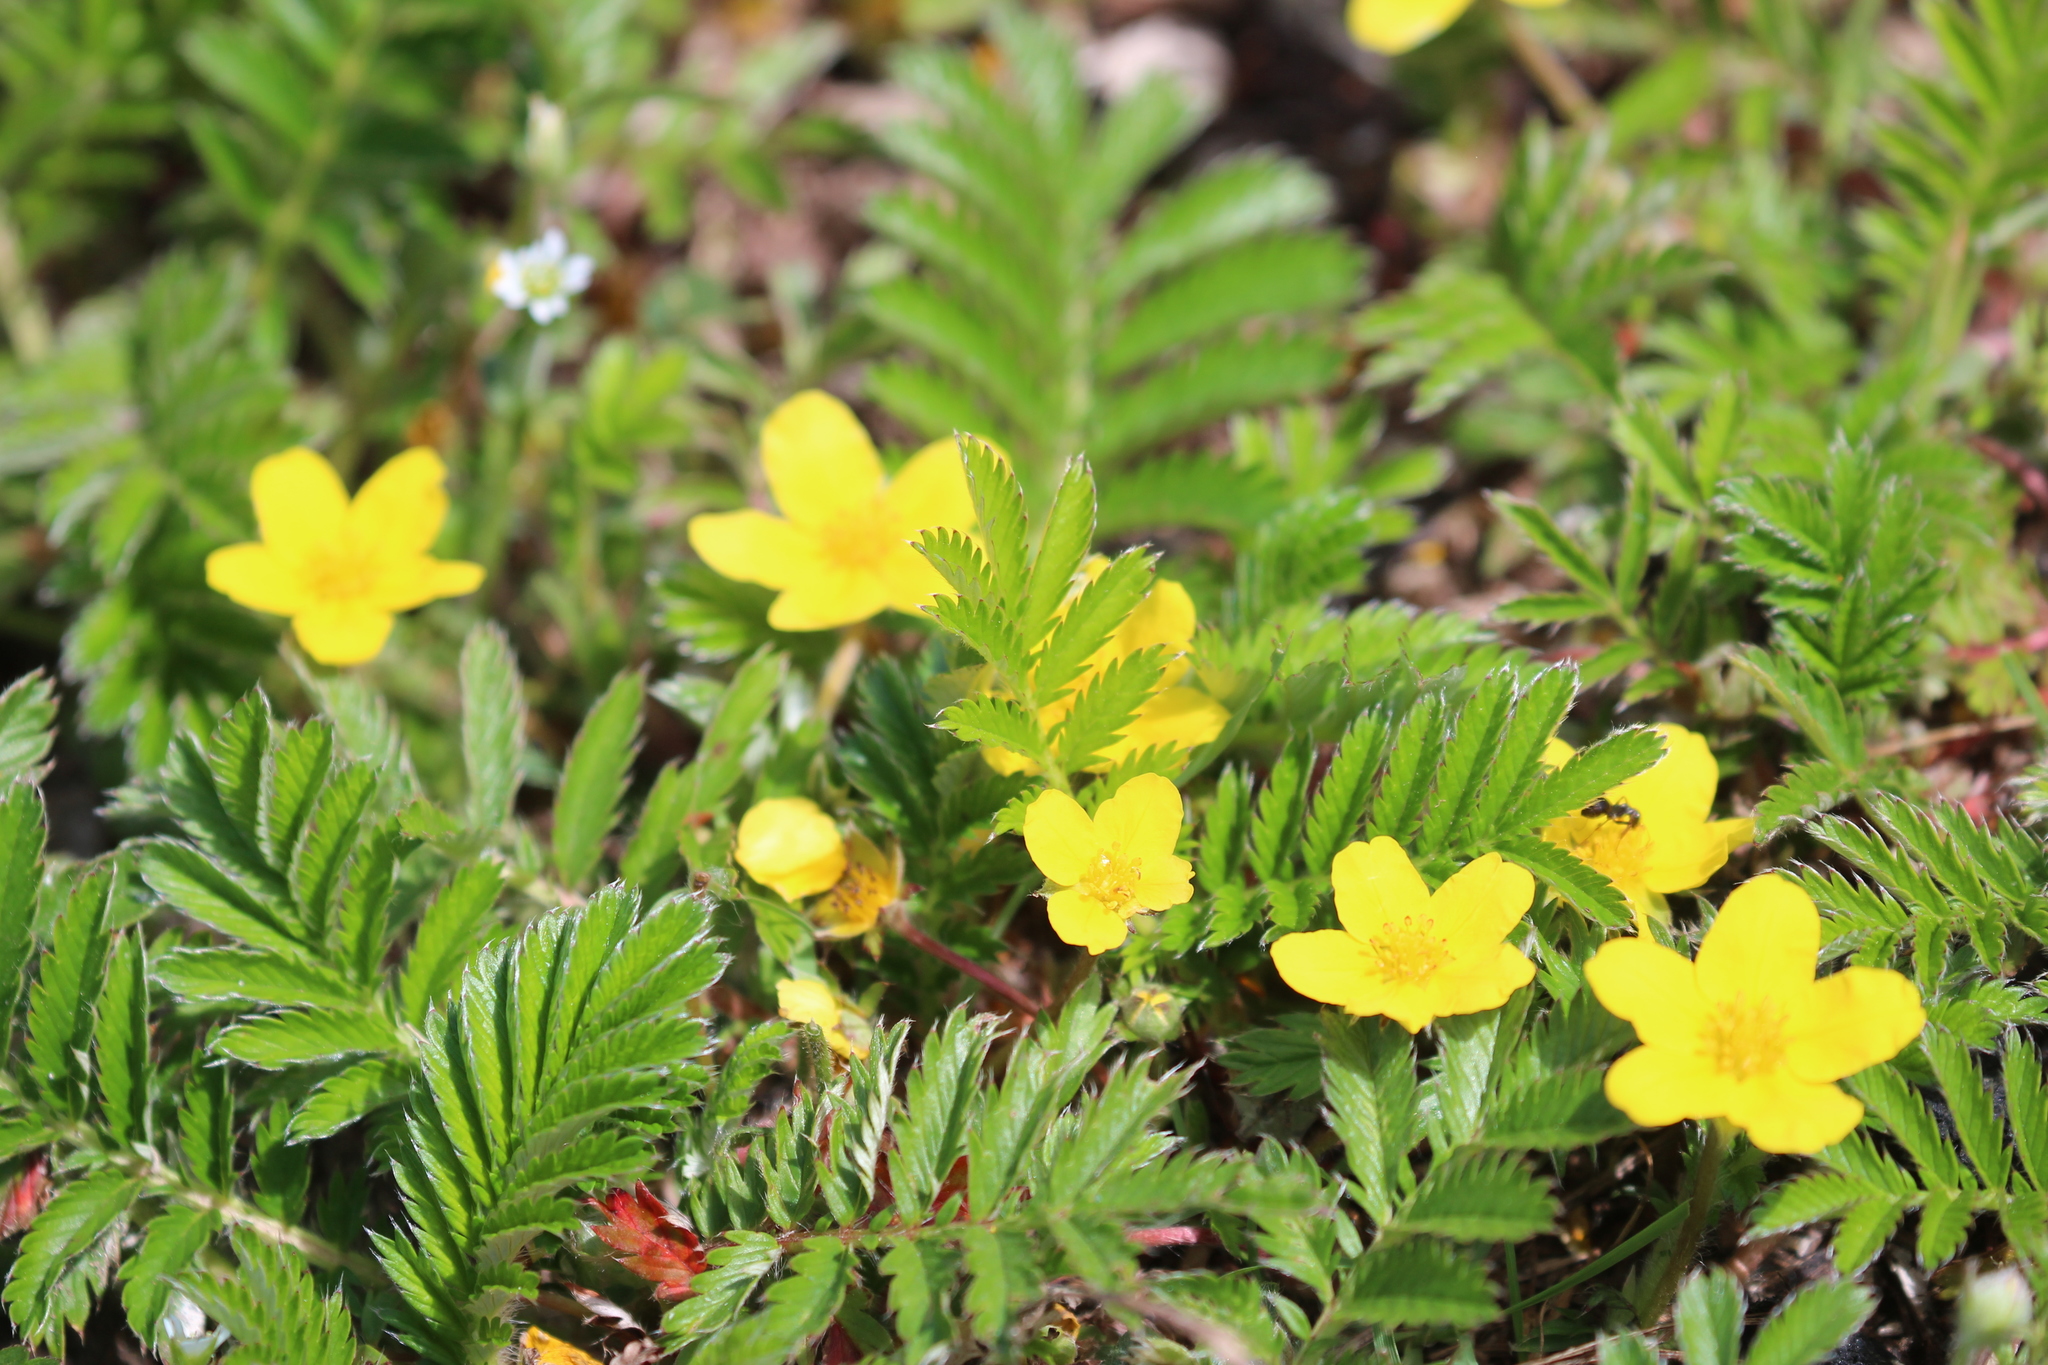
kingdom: Plantae
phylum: Tracheophyta
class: Magnoliopsida
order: Rosales
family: Rosaceae
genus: Argentina
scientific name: Argentina anserina
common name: Common silverweed
